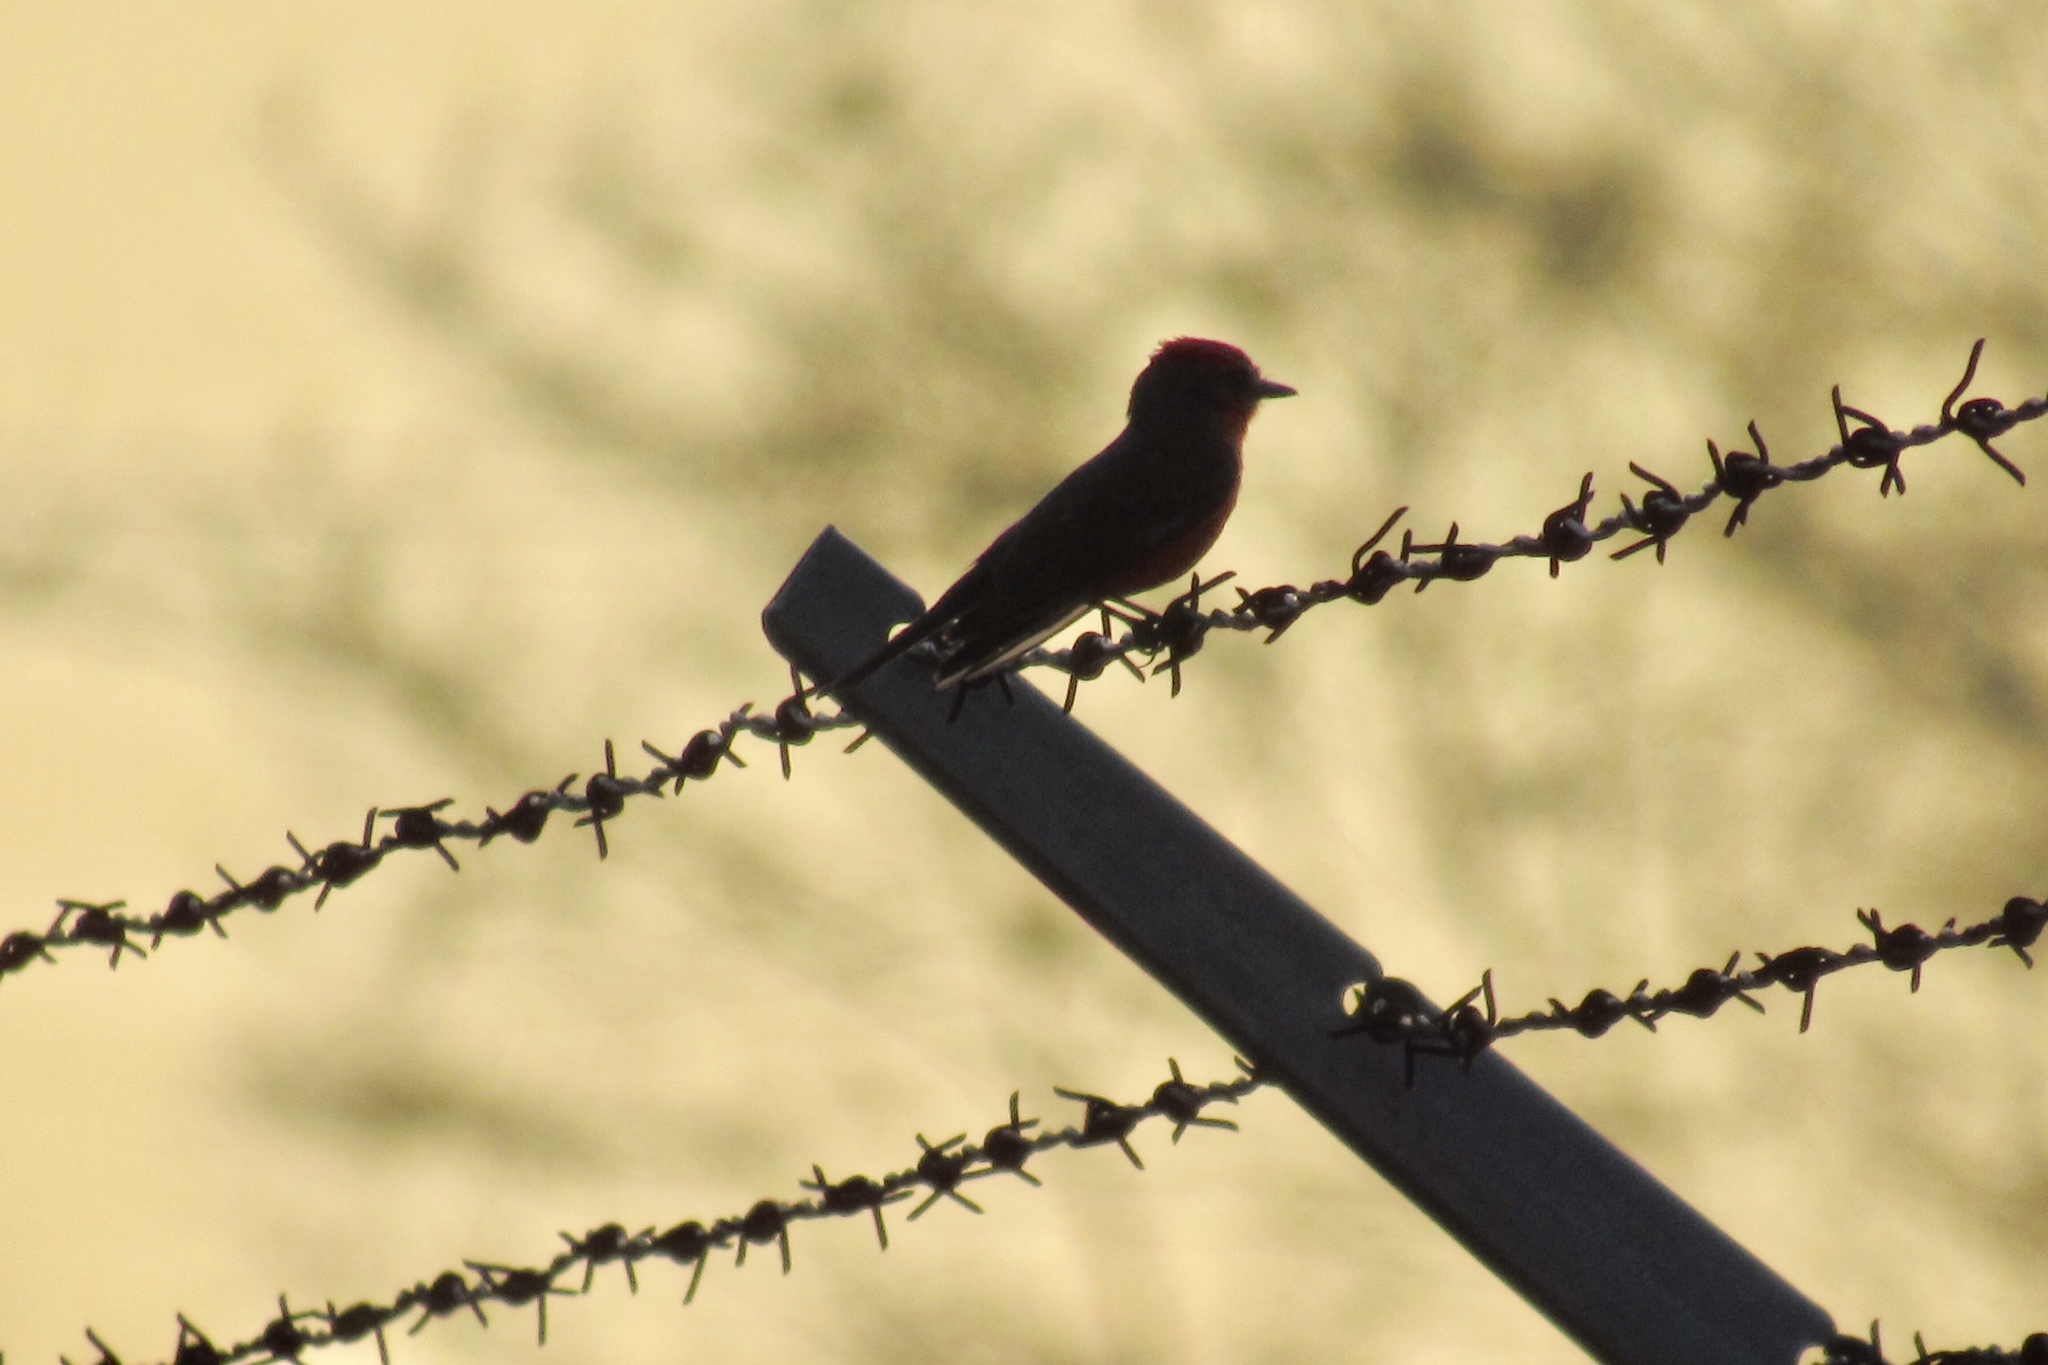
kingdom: Animalia
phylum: Chordata
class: Aves
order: Passeriformes
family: Tyrannidae
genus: Pyrocephalus
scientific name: Pyrocephalus rubinus
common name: Vermilion flycatcher
